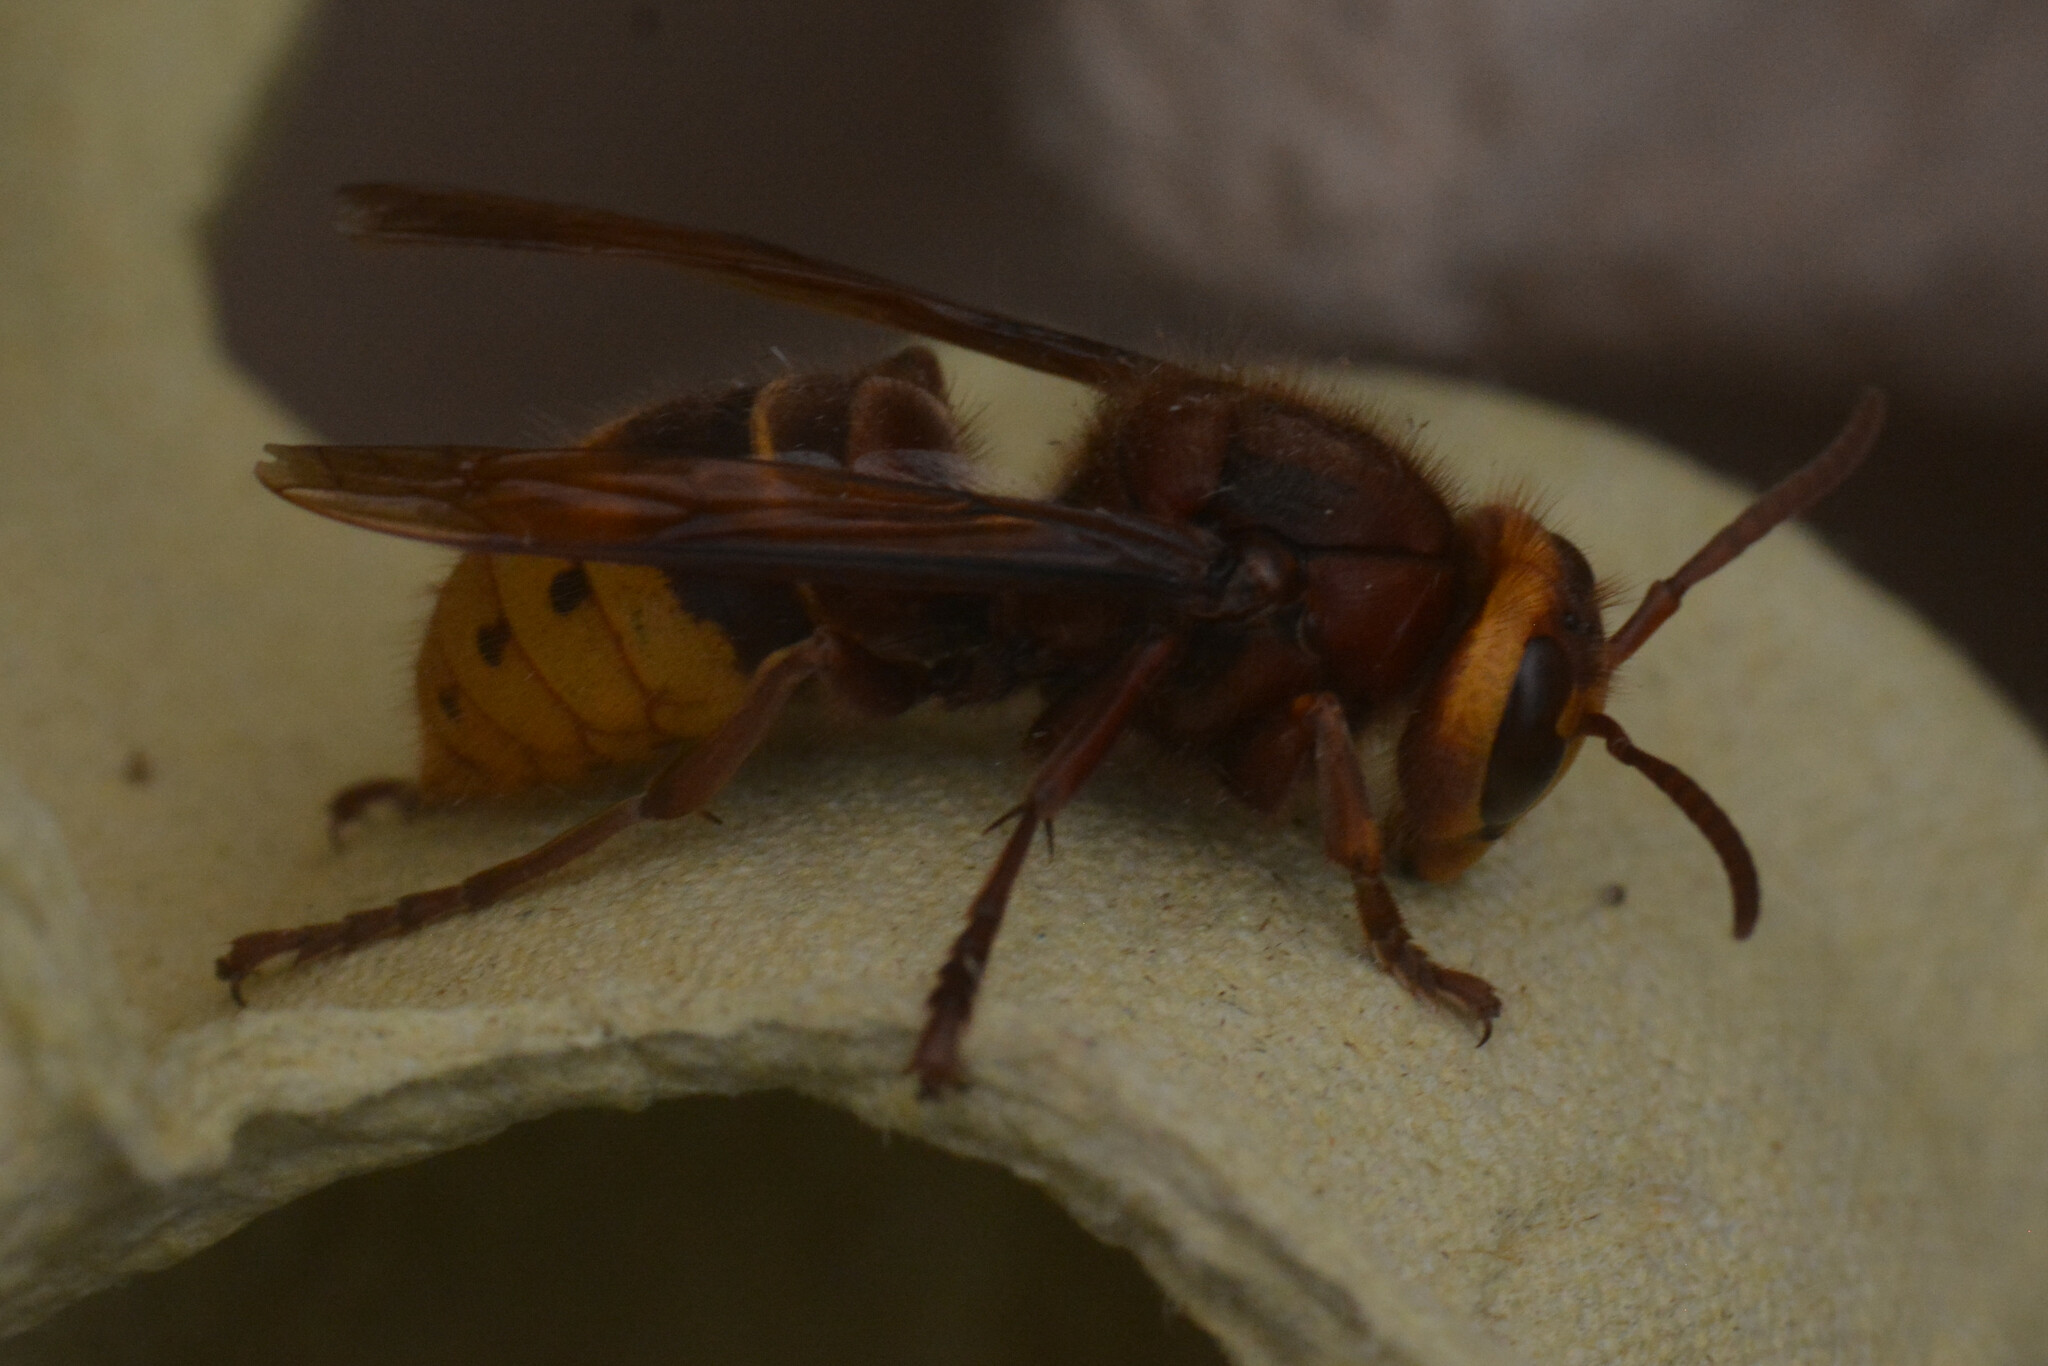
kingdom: Animalia
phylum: Arthropoda
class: Insecta
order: Hymenoptera
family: Vespidae
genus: Vespa
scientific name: Vespa crabro
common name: Hornet
